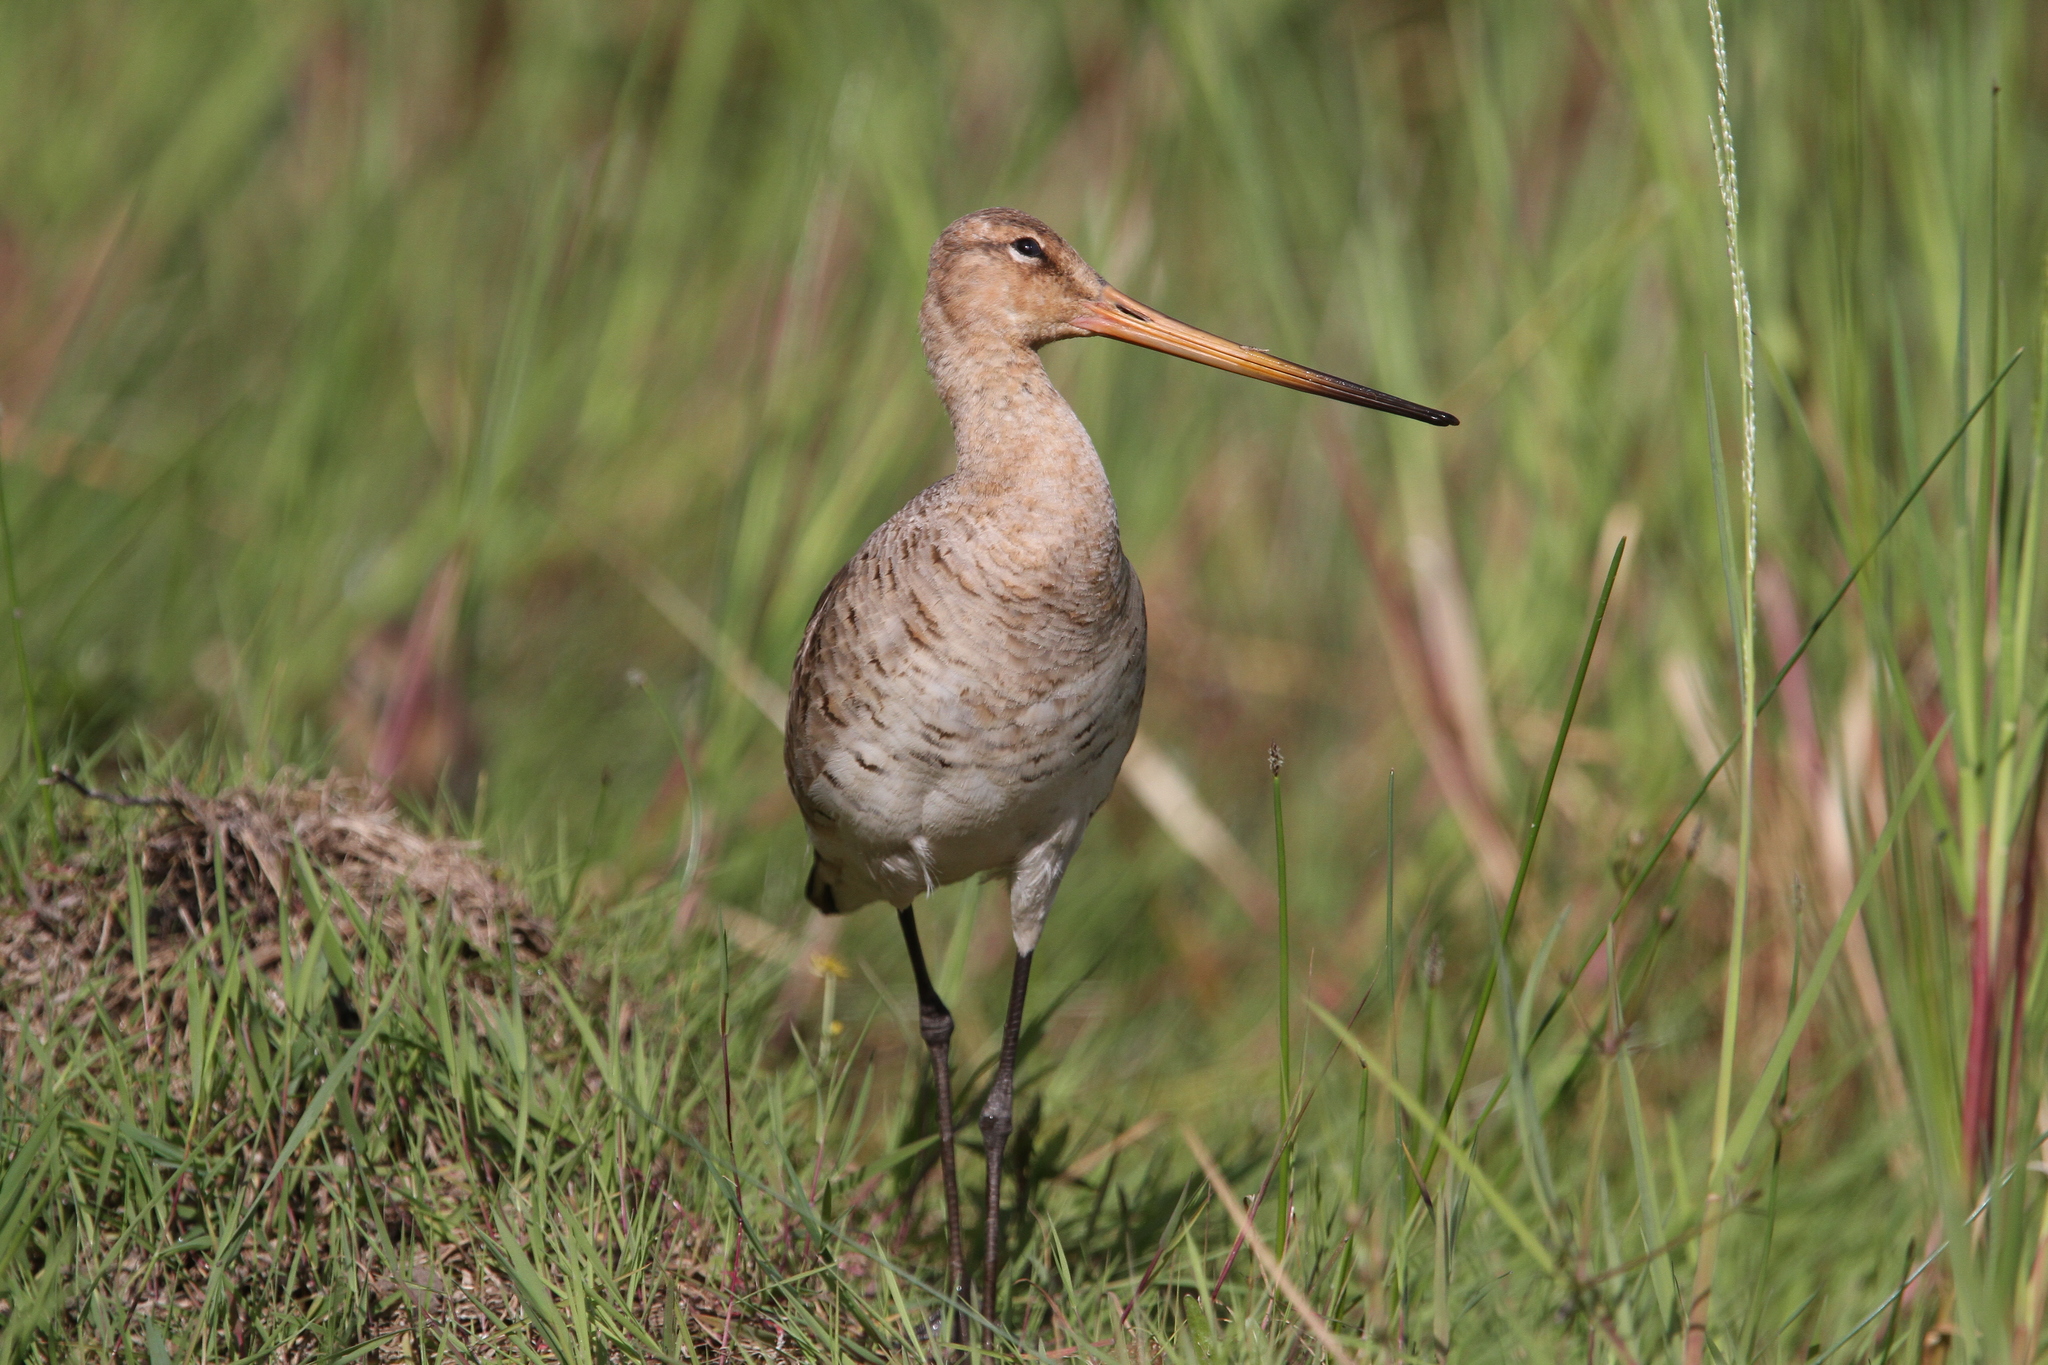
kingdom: Animalia
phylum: Chordata
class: Aves
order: Charadriiformes
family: Scolopacidae
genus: Limosa
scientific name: Limosa limosa
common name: Black-tailed godwit
